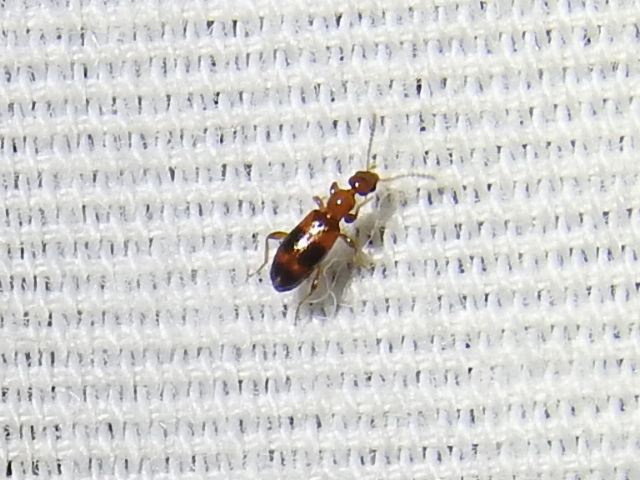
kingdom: Animalia
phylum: Arthropoda
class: Insecta
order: Coleoptera
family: Anthicidae
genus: Vacusus
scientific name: Vacusus vicinus
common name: Antlike flower beetle
